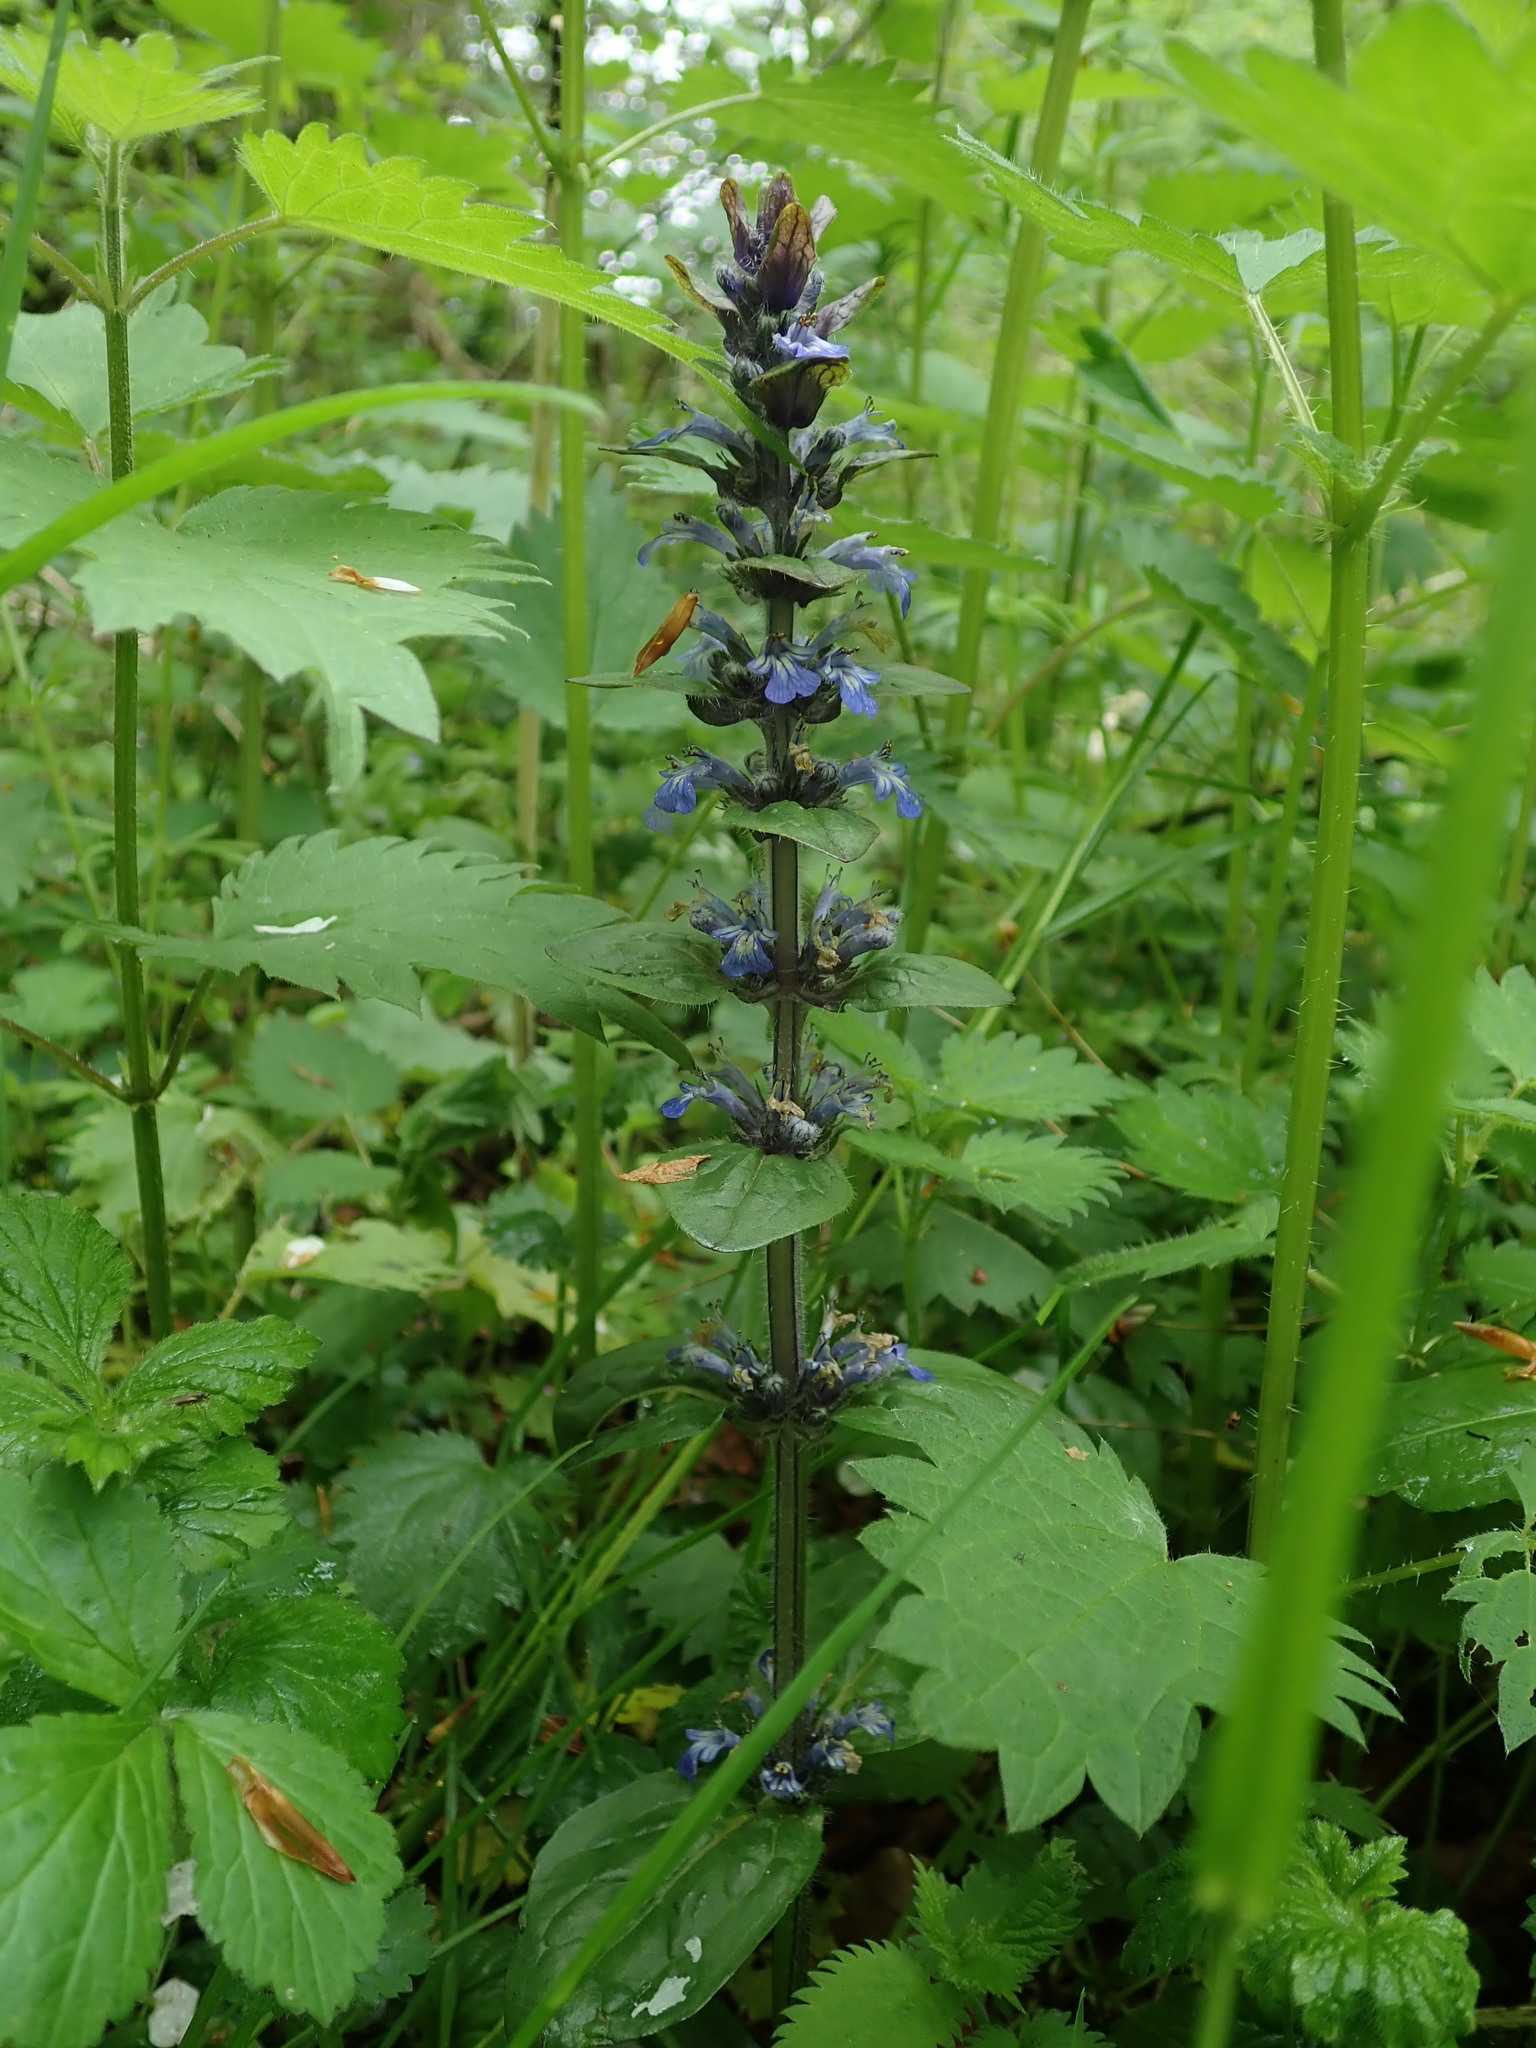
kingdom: Plantae
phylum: Tracheophyta
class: Magnoliopsida
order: Lamiales
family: Lamiaceae
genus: Ajuga
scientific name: Ajuga reptans
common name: Bugle
